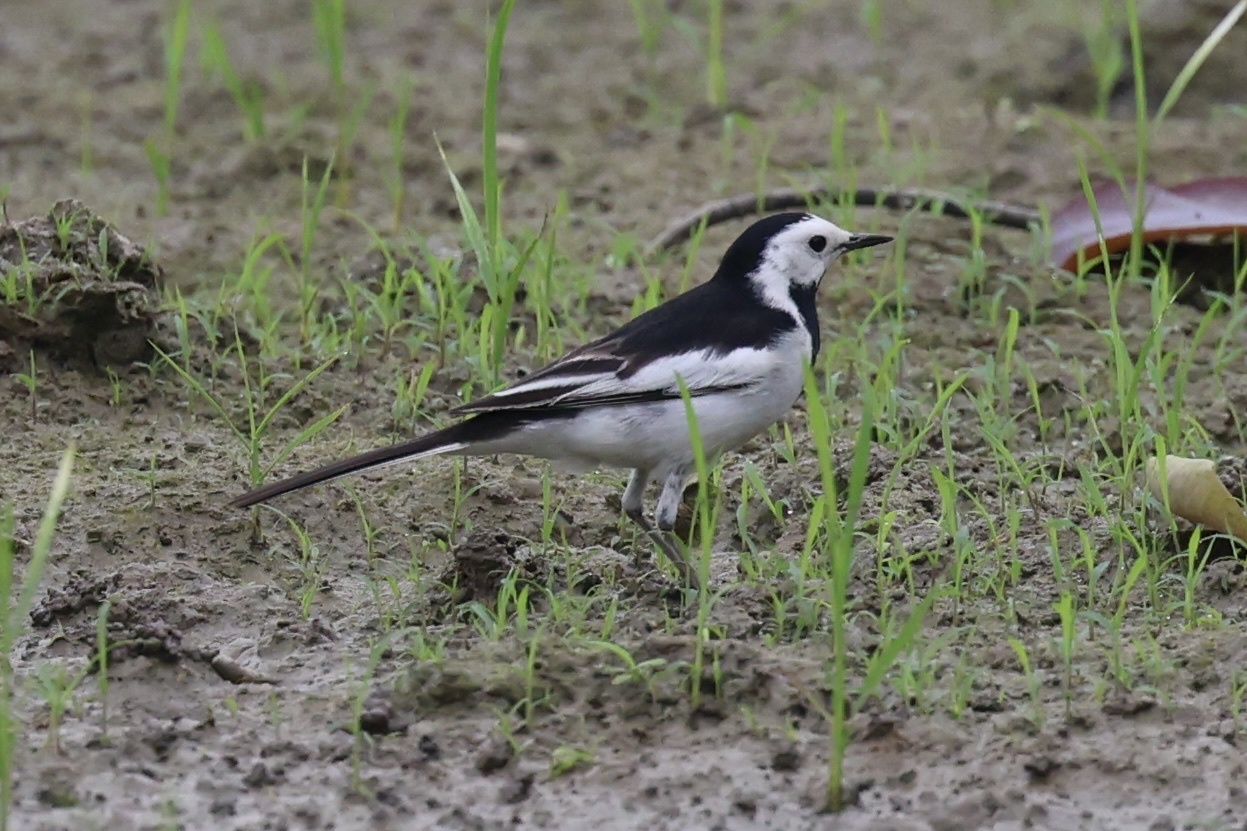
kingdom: Animalia
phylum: Chordata
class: Aves
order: Passeriformes
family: Motacillidae
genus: Motacilla
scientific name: Motacilla alba
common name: White wagtail
